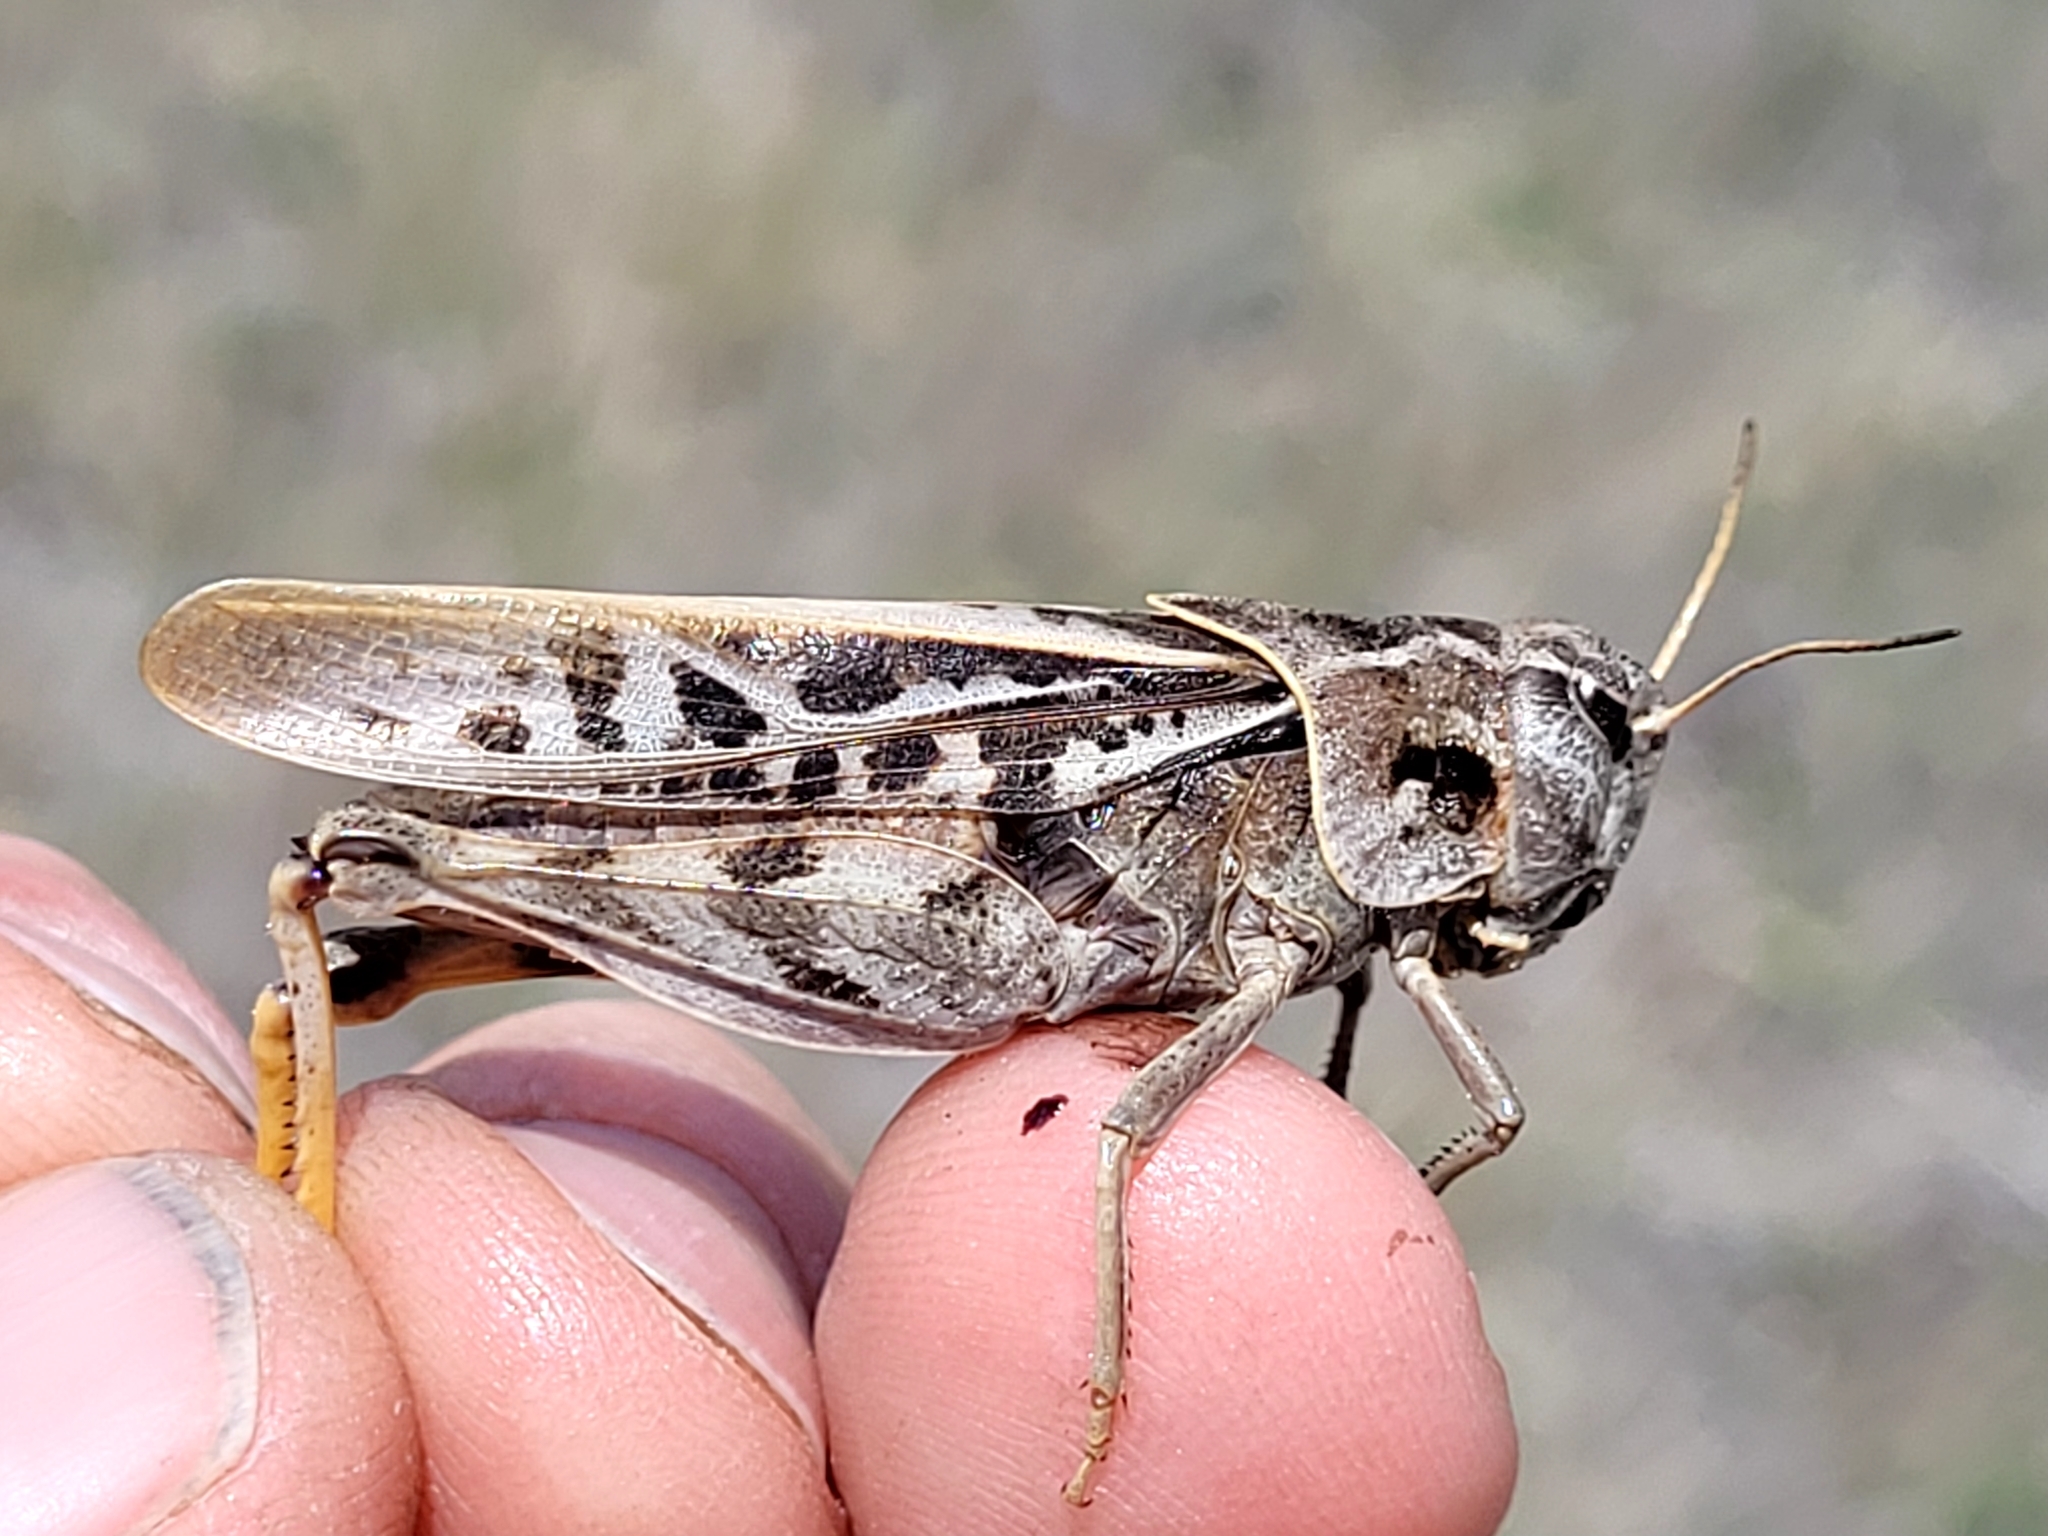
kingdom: Animalia
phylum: Arthropoda
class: Insecta
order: Orthoptera
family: Acrididae
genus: Pardalophora
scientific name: Pardalophora apiculata
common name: Coral-winged locust
